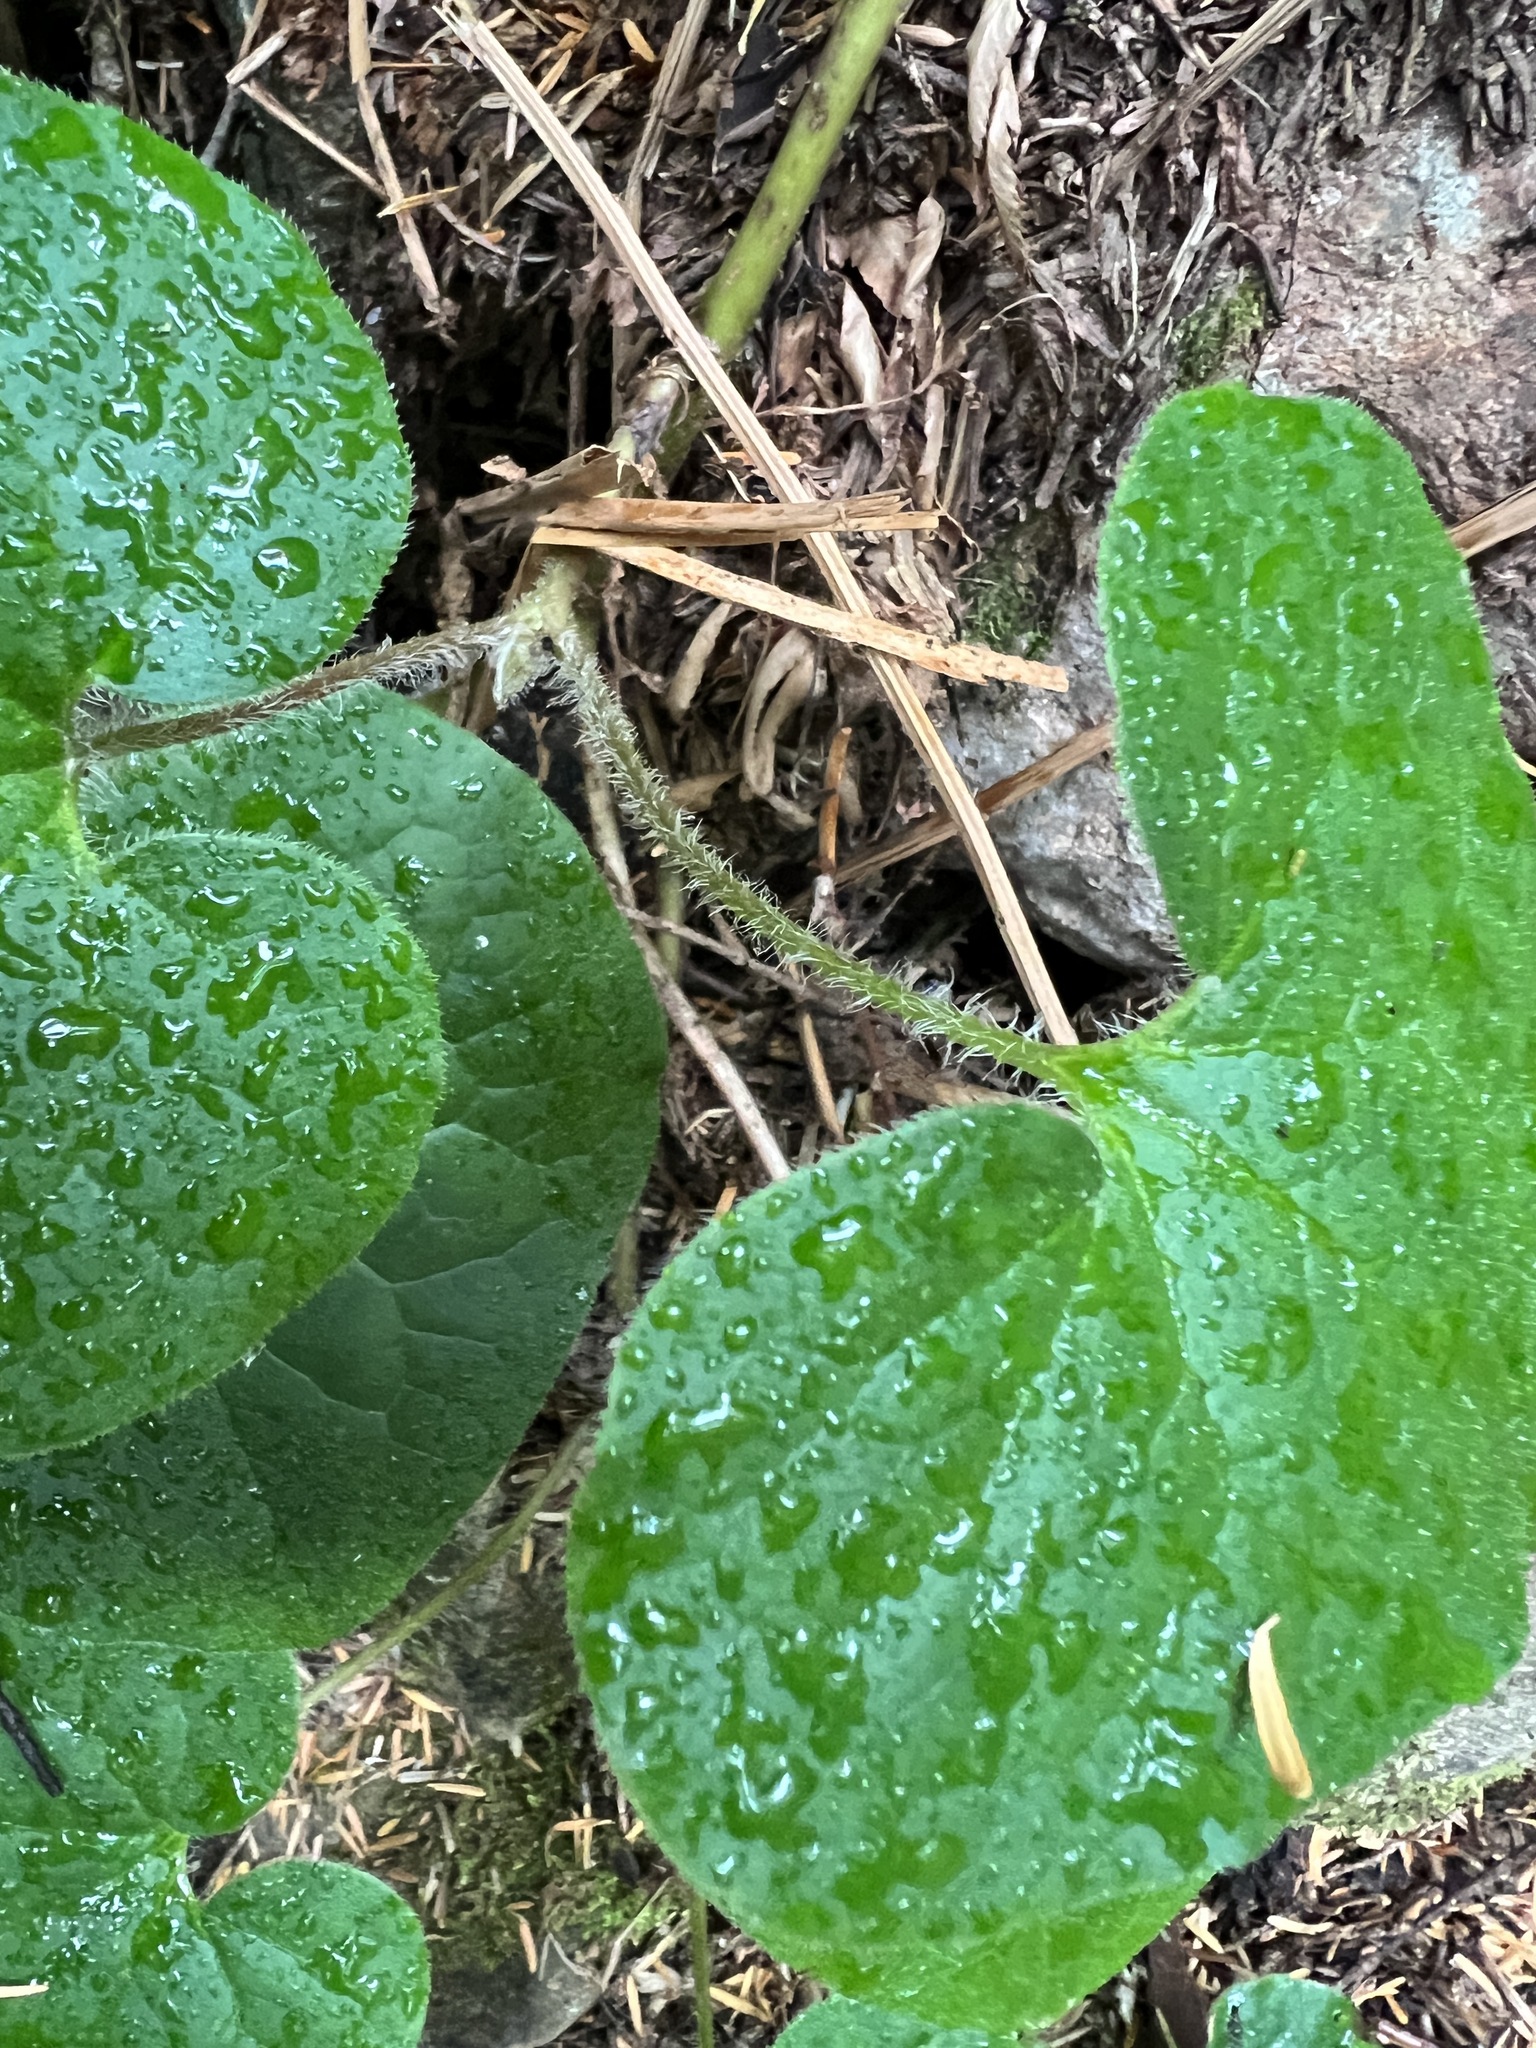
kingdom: Plantae
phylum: Tracheophyta
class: Magnoliopsida
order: Piperales
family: Aristolochiaceae
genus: Asarum
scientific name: Asarum caudatum
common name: Wild ginger
